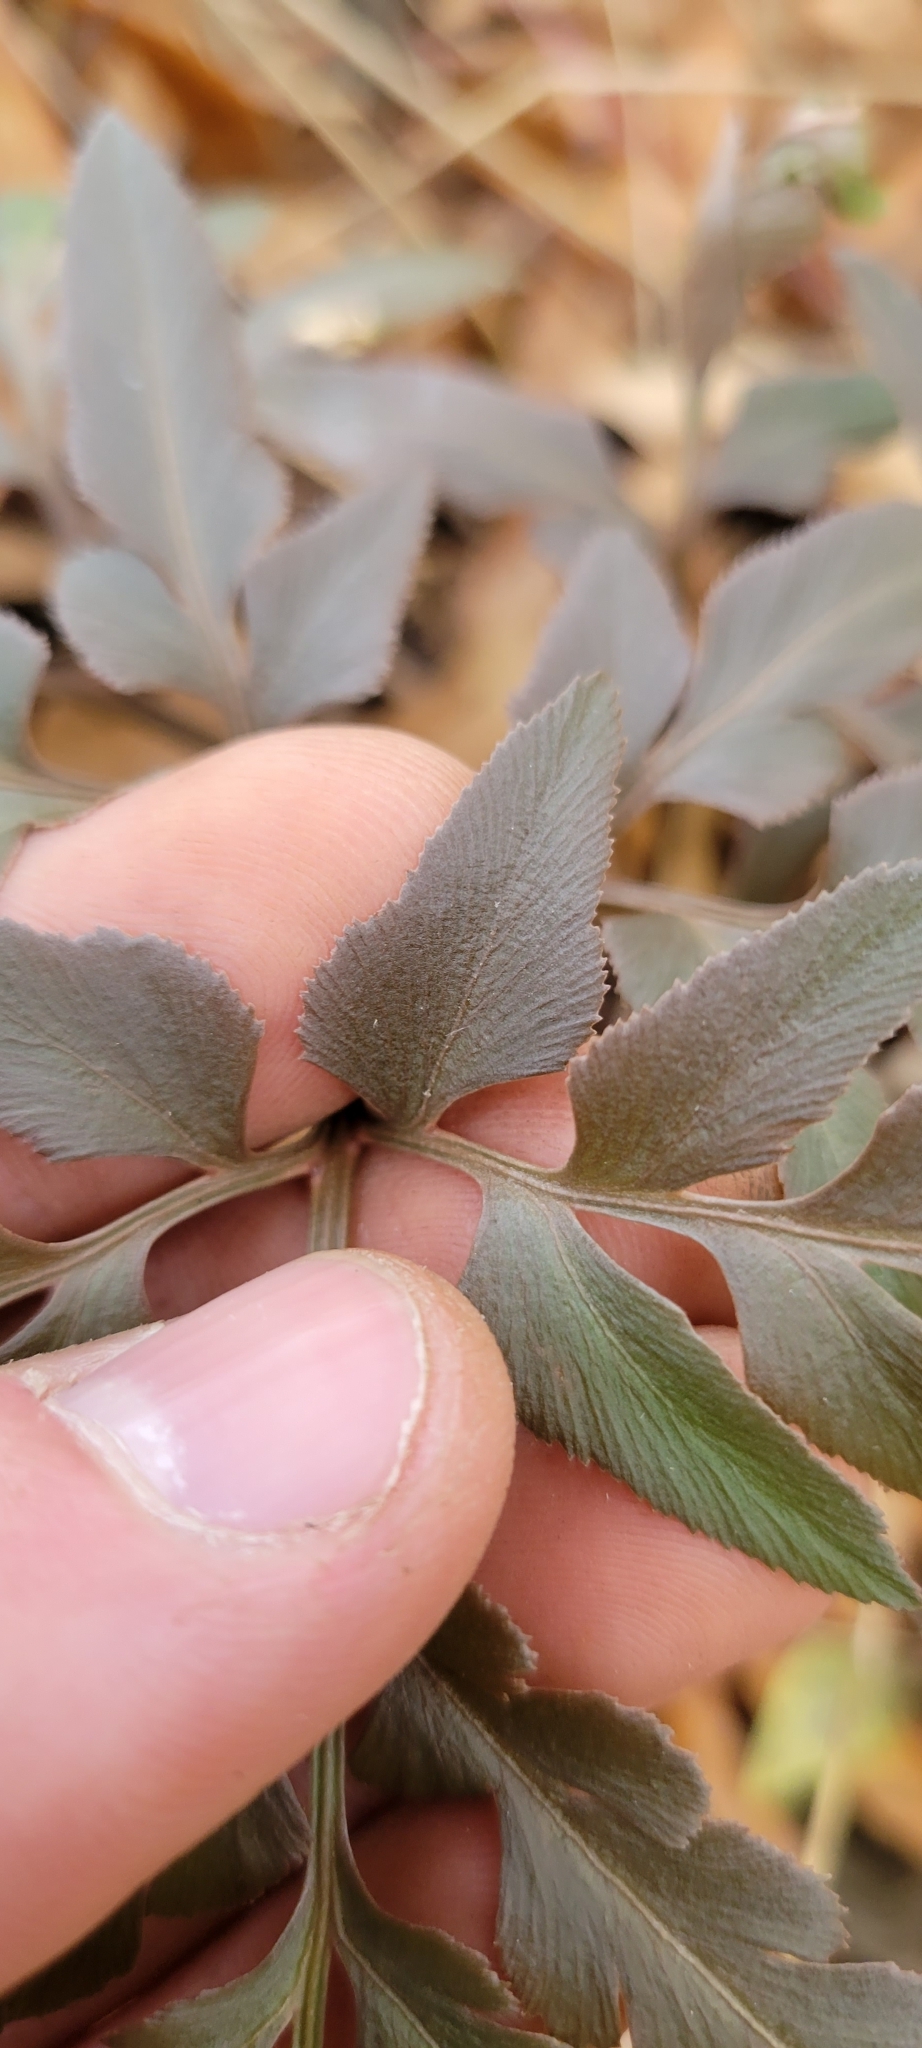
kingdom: Plantae
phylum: Tracheophyta
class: Polypodiopsida
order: Ophioglossales
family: Ophioglossaceae
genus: Sceptridium
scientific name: Sceptridium dissectum
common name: Cut-leaved grapefern
